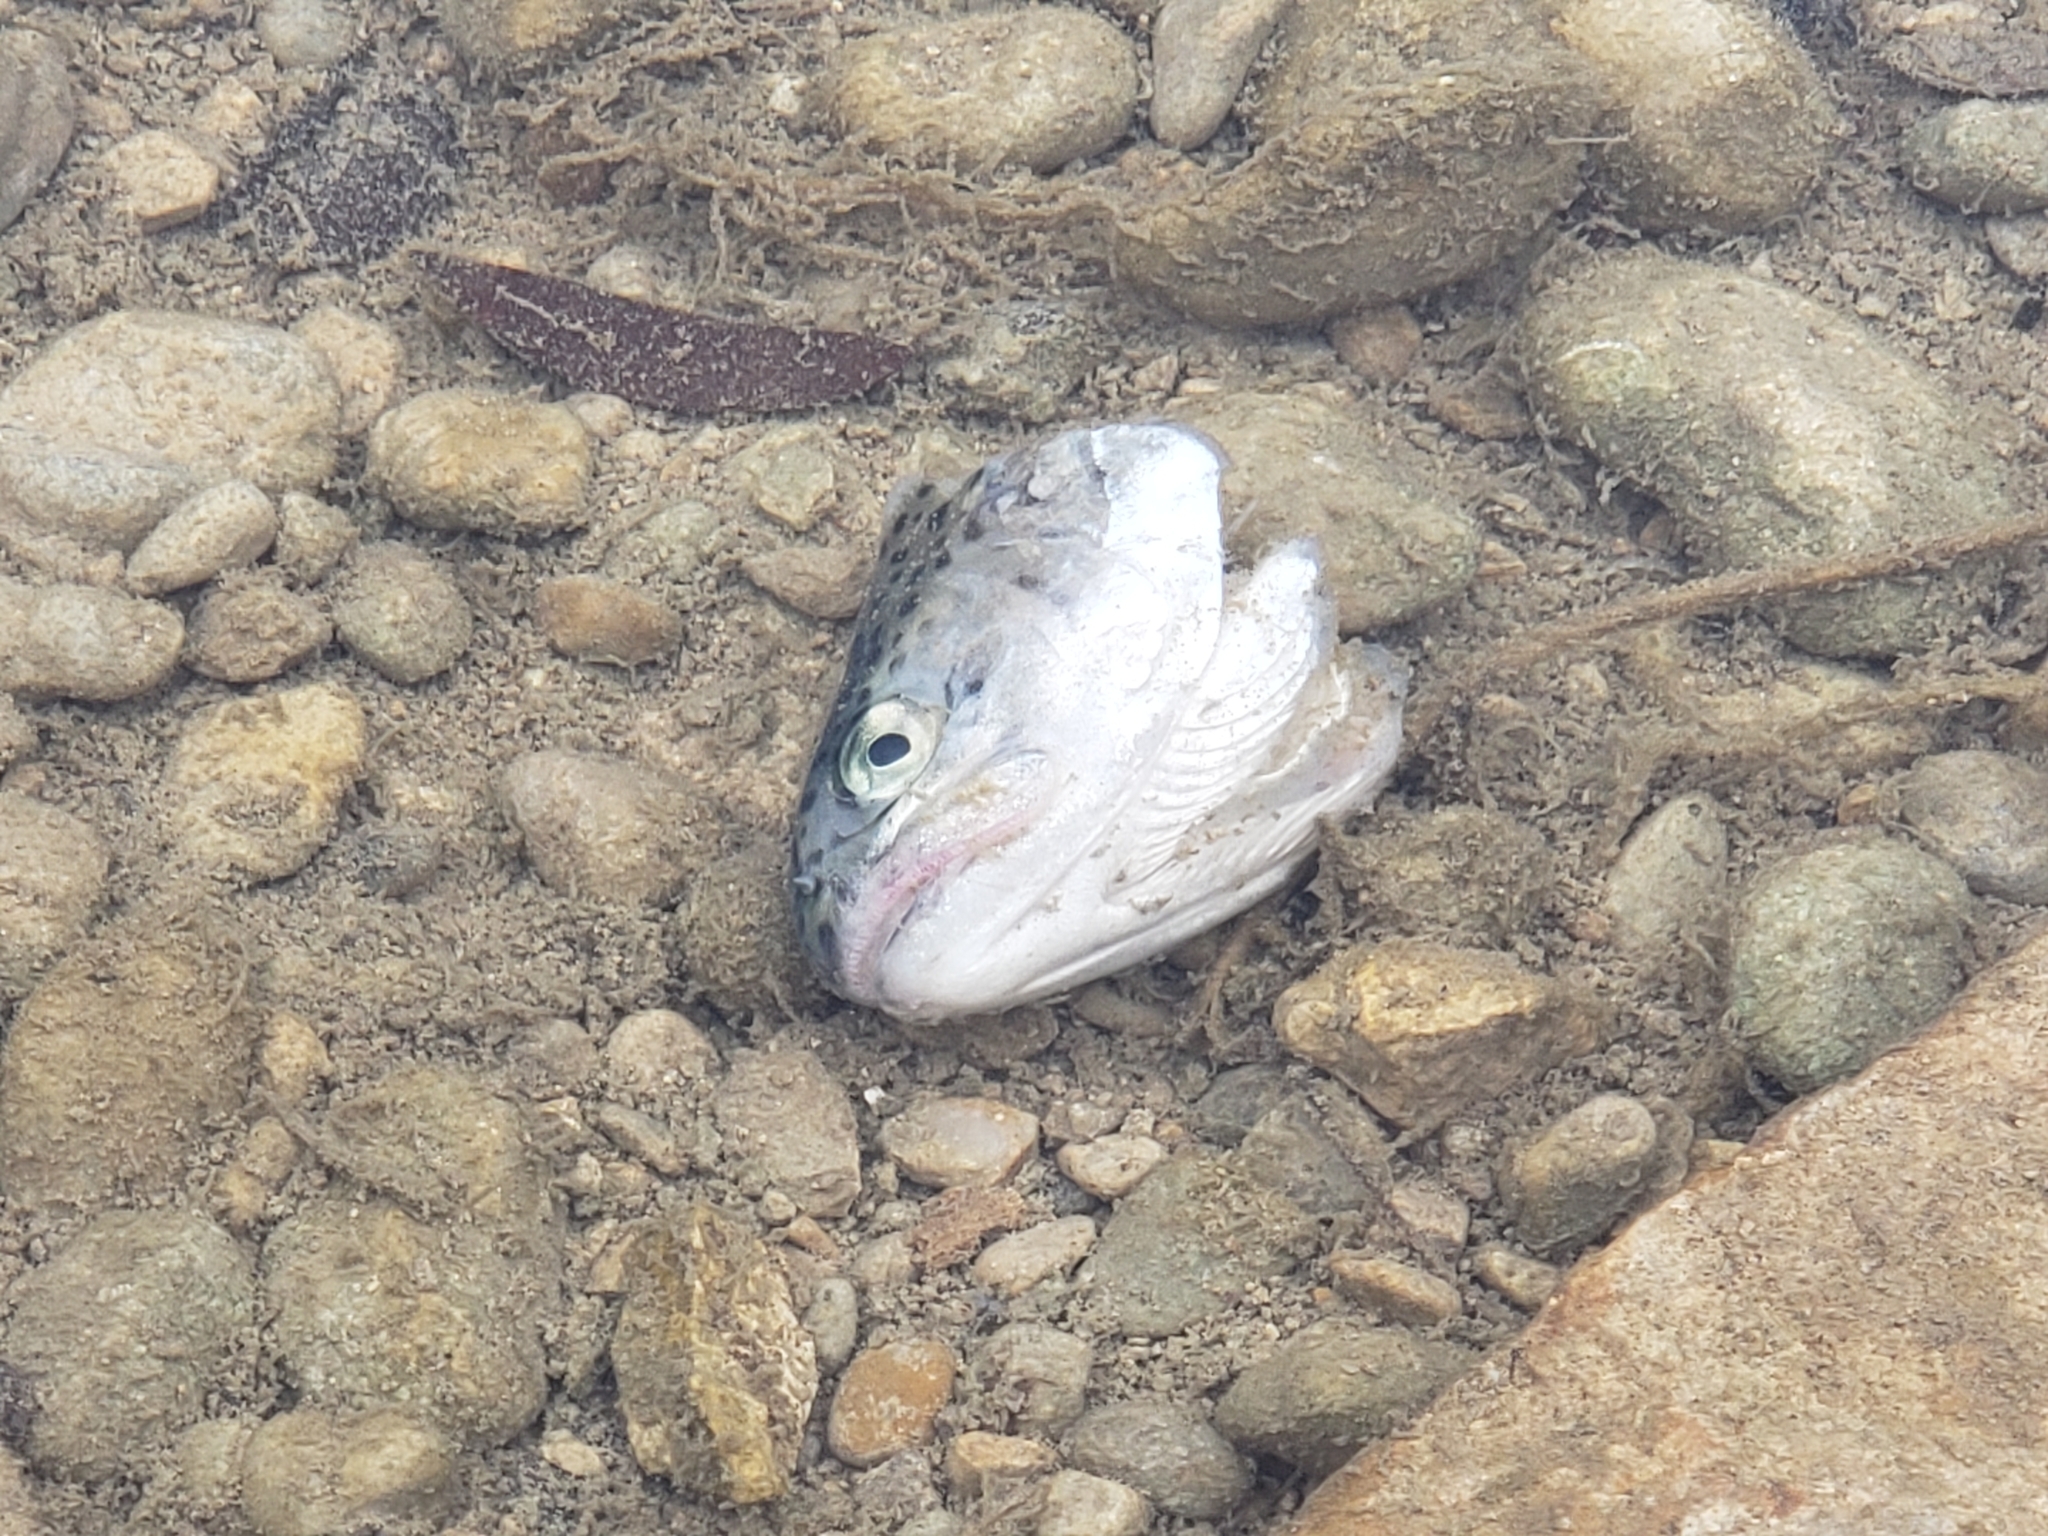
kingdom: Animalia
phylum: Chordata
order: Salmoniformes
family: Salmonidae
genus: Oncorhynchus
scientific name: Oncorhynchus mykiss
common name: Rainbow trout
